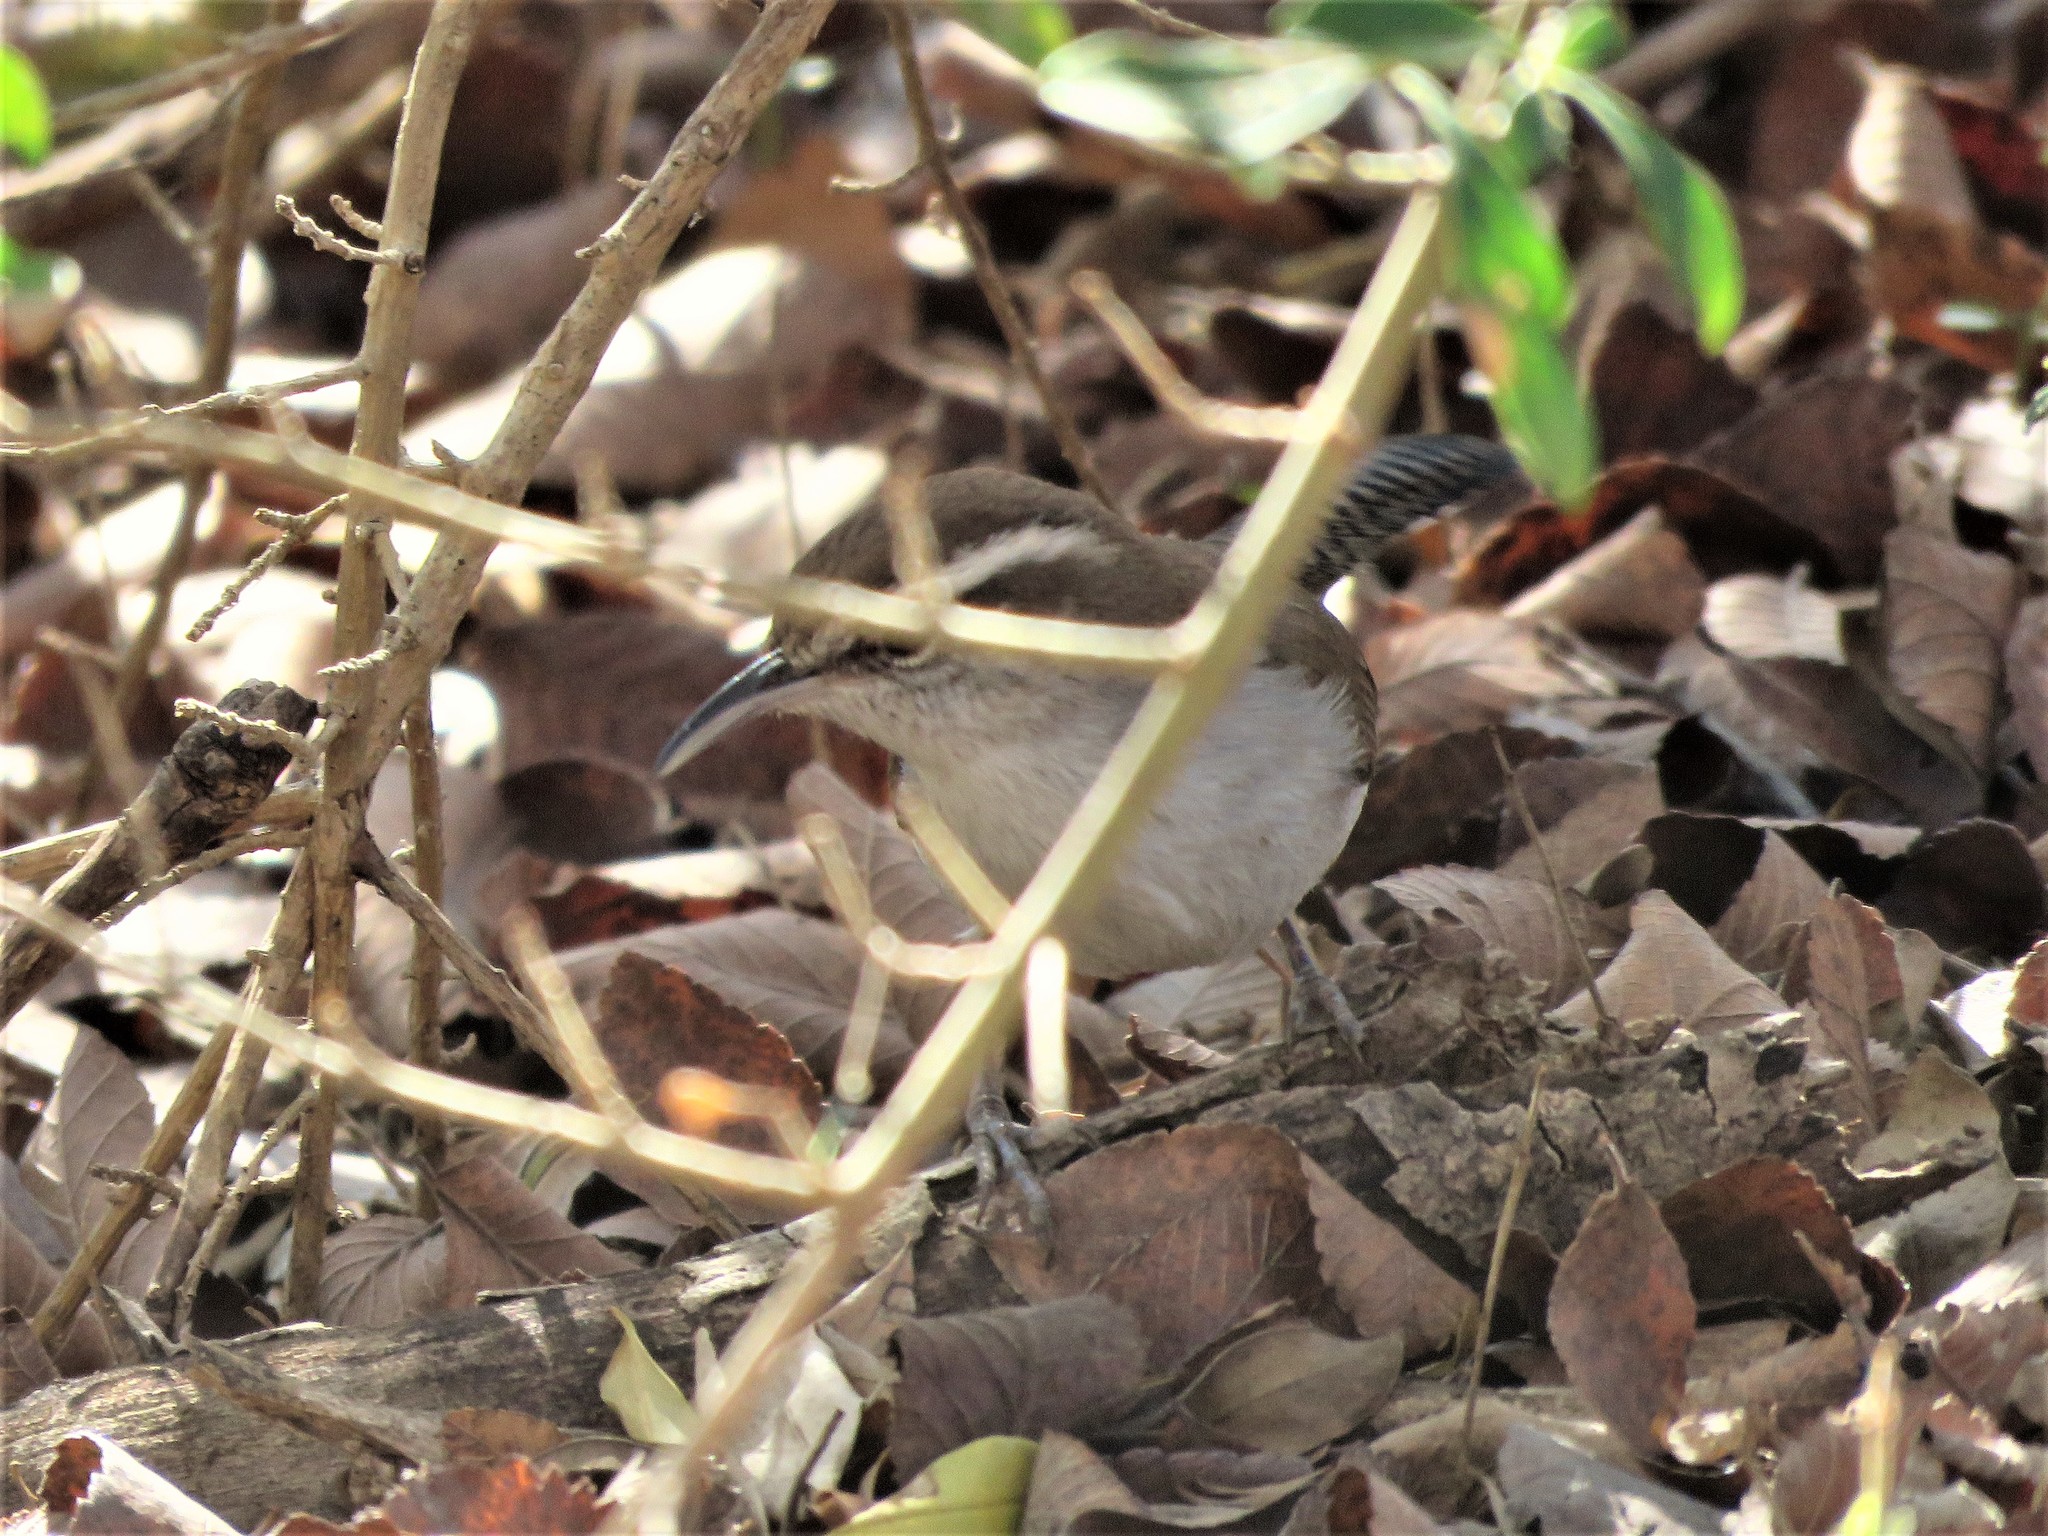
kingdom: Animalia
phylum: Chordata
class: Aves
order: Passeriformes
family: Troglodytidae
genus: Thryomanes
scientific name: Thryomanes bewickii
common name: Bewick's wren
